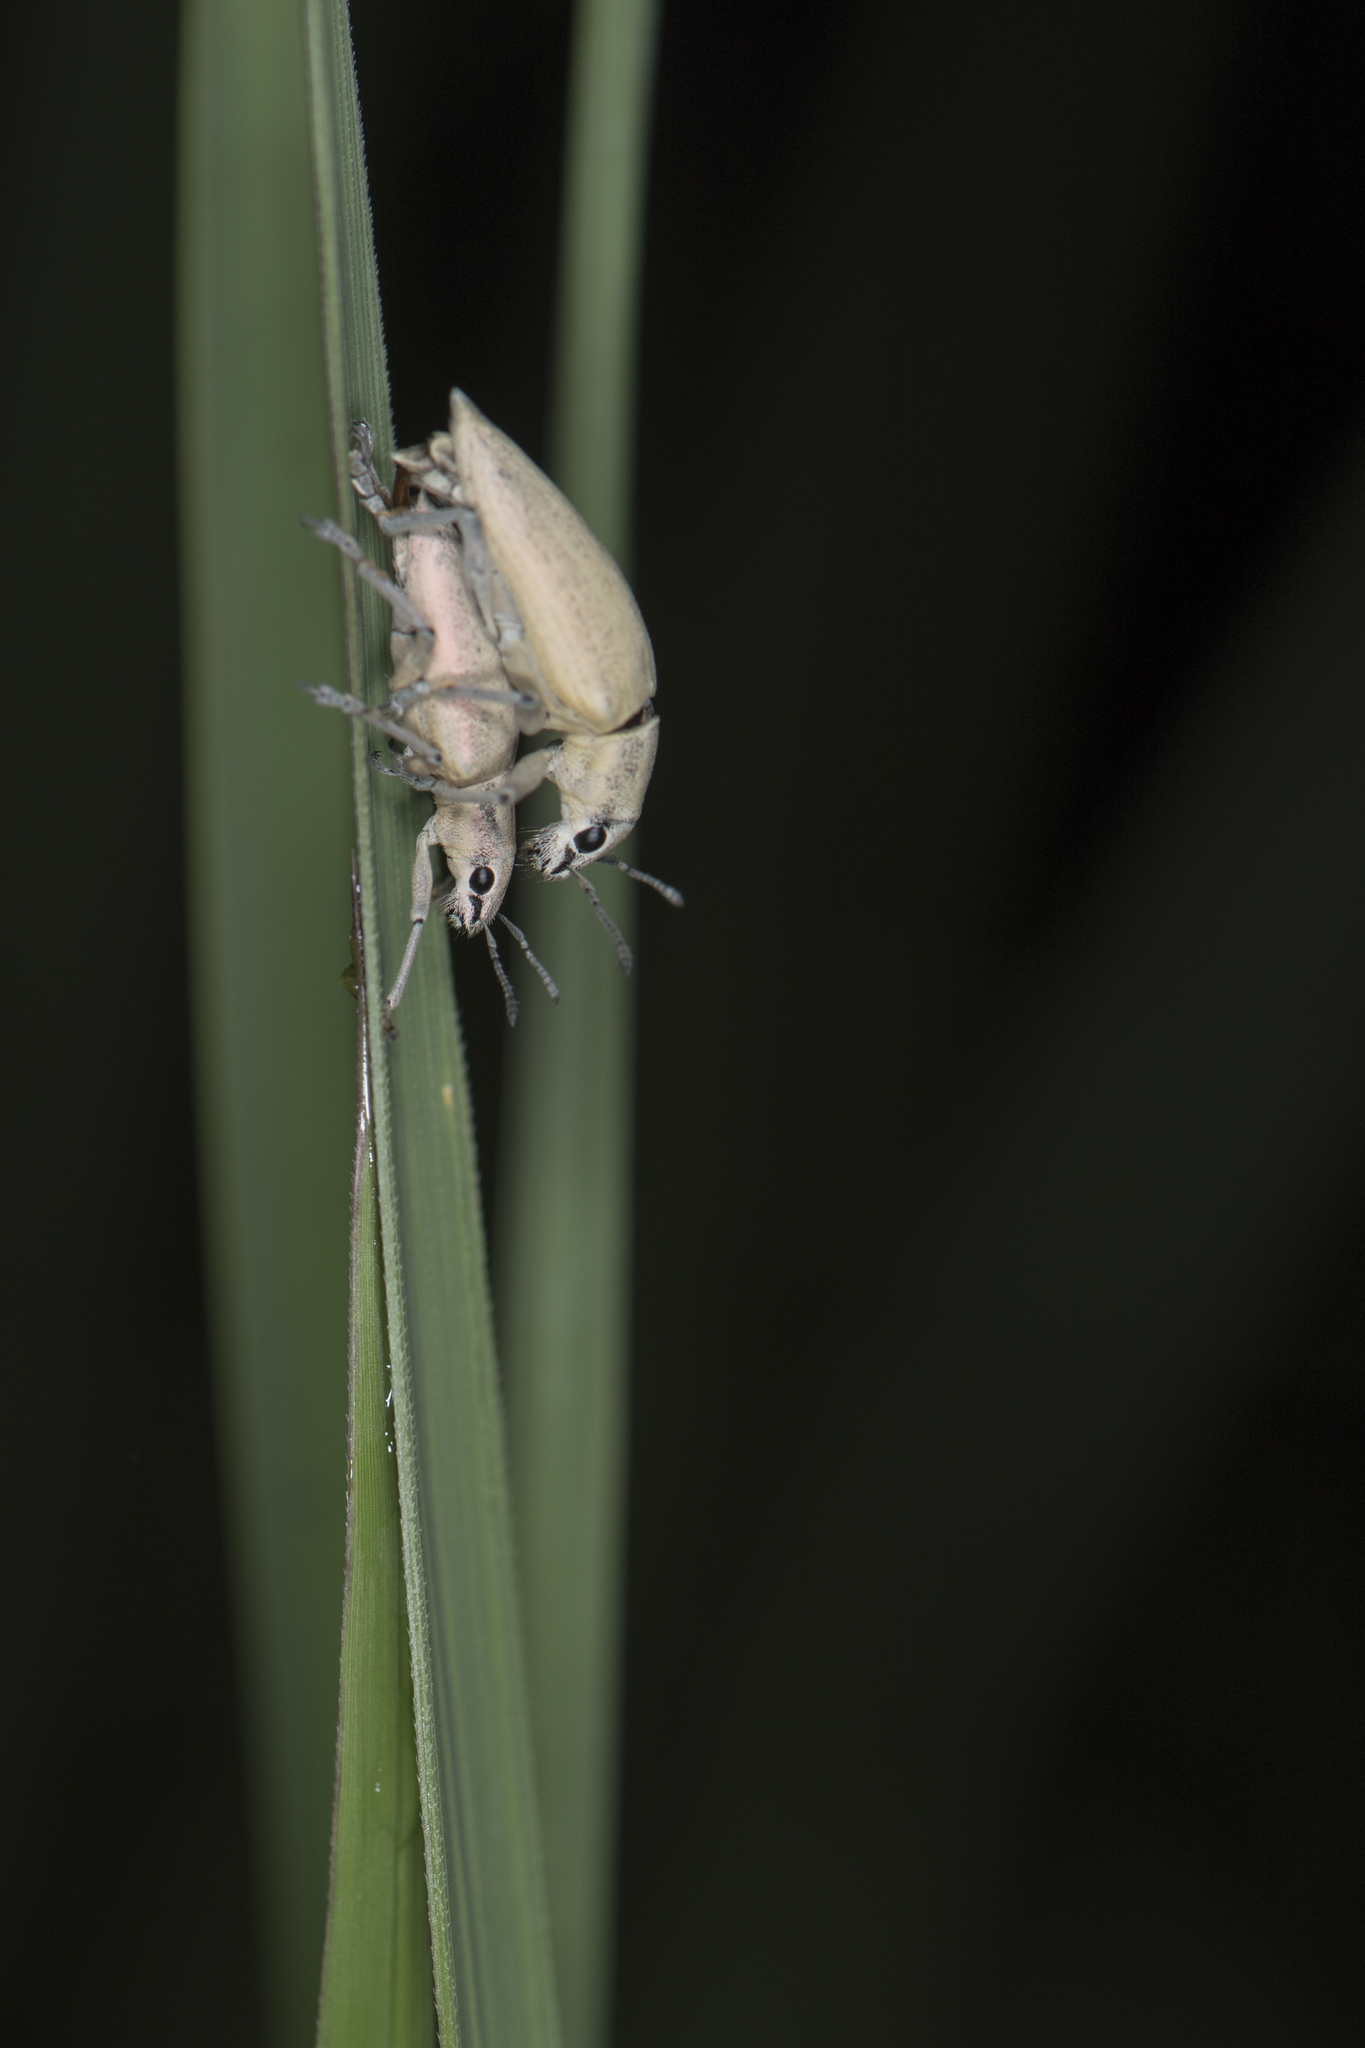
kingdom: Animalia
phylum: Arthropoda
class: Insecta
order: Coleoptera
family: Curculionidae
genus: Esamus
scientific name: Esamus circumdatus
